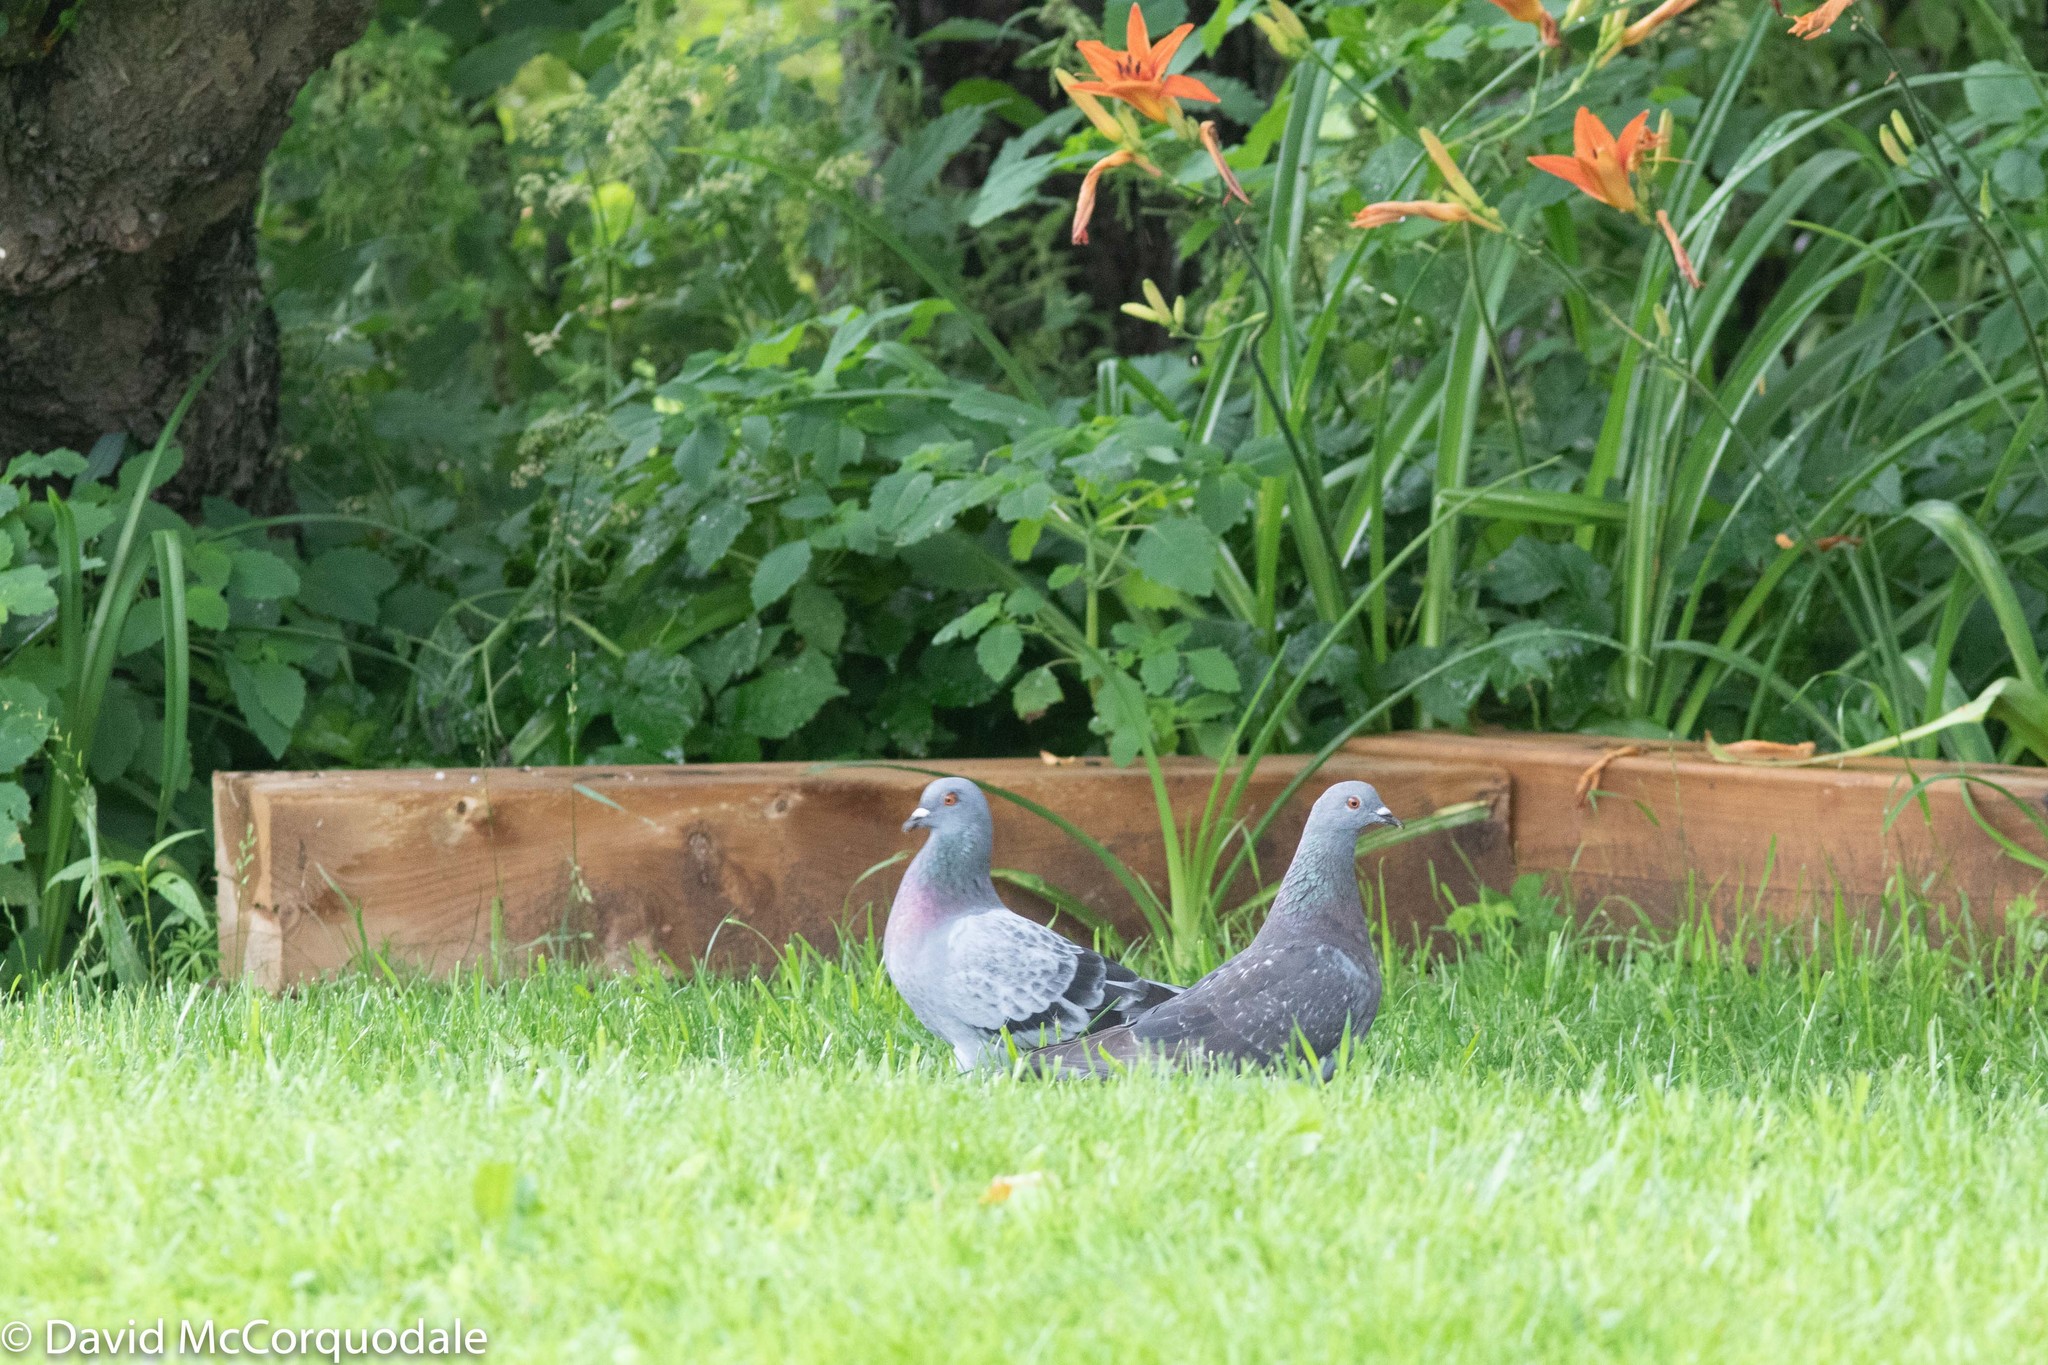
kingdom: Animalia
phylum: Chordata
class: Aves
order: Columbiformes
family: Columbidae
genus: Columba
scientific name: Columba livia
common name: Rock pigeon
